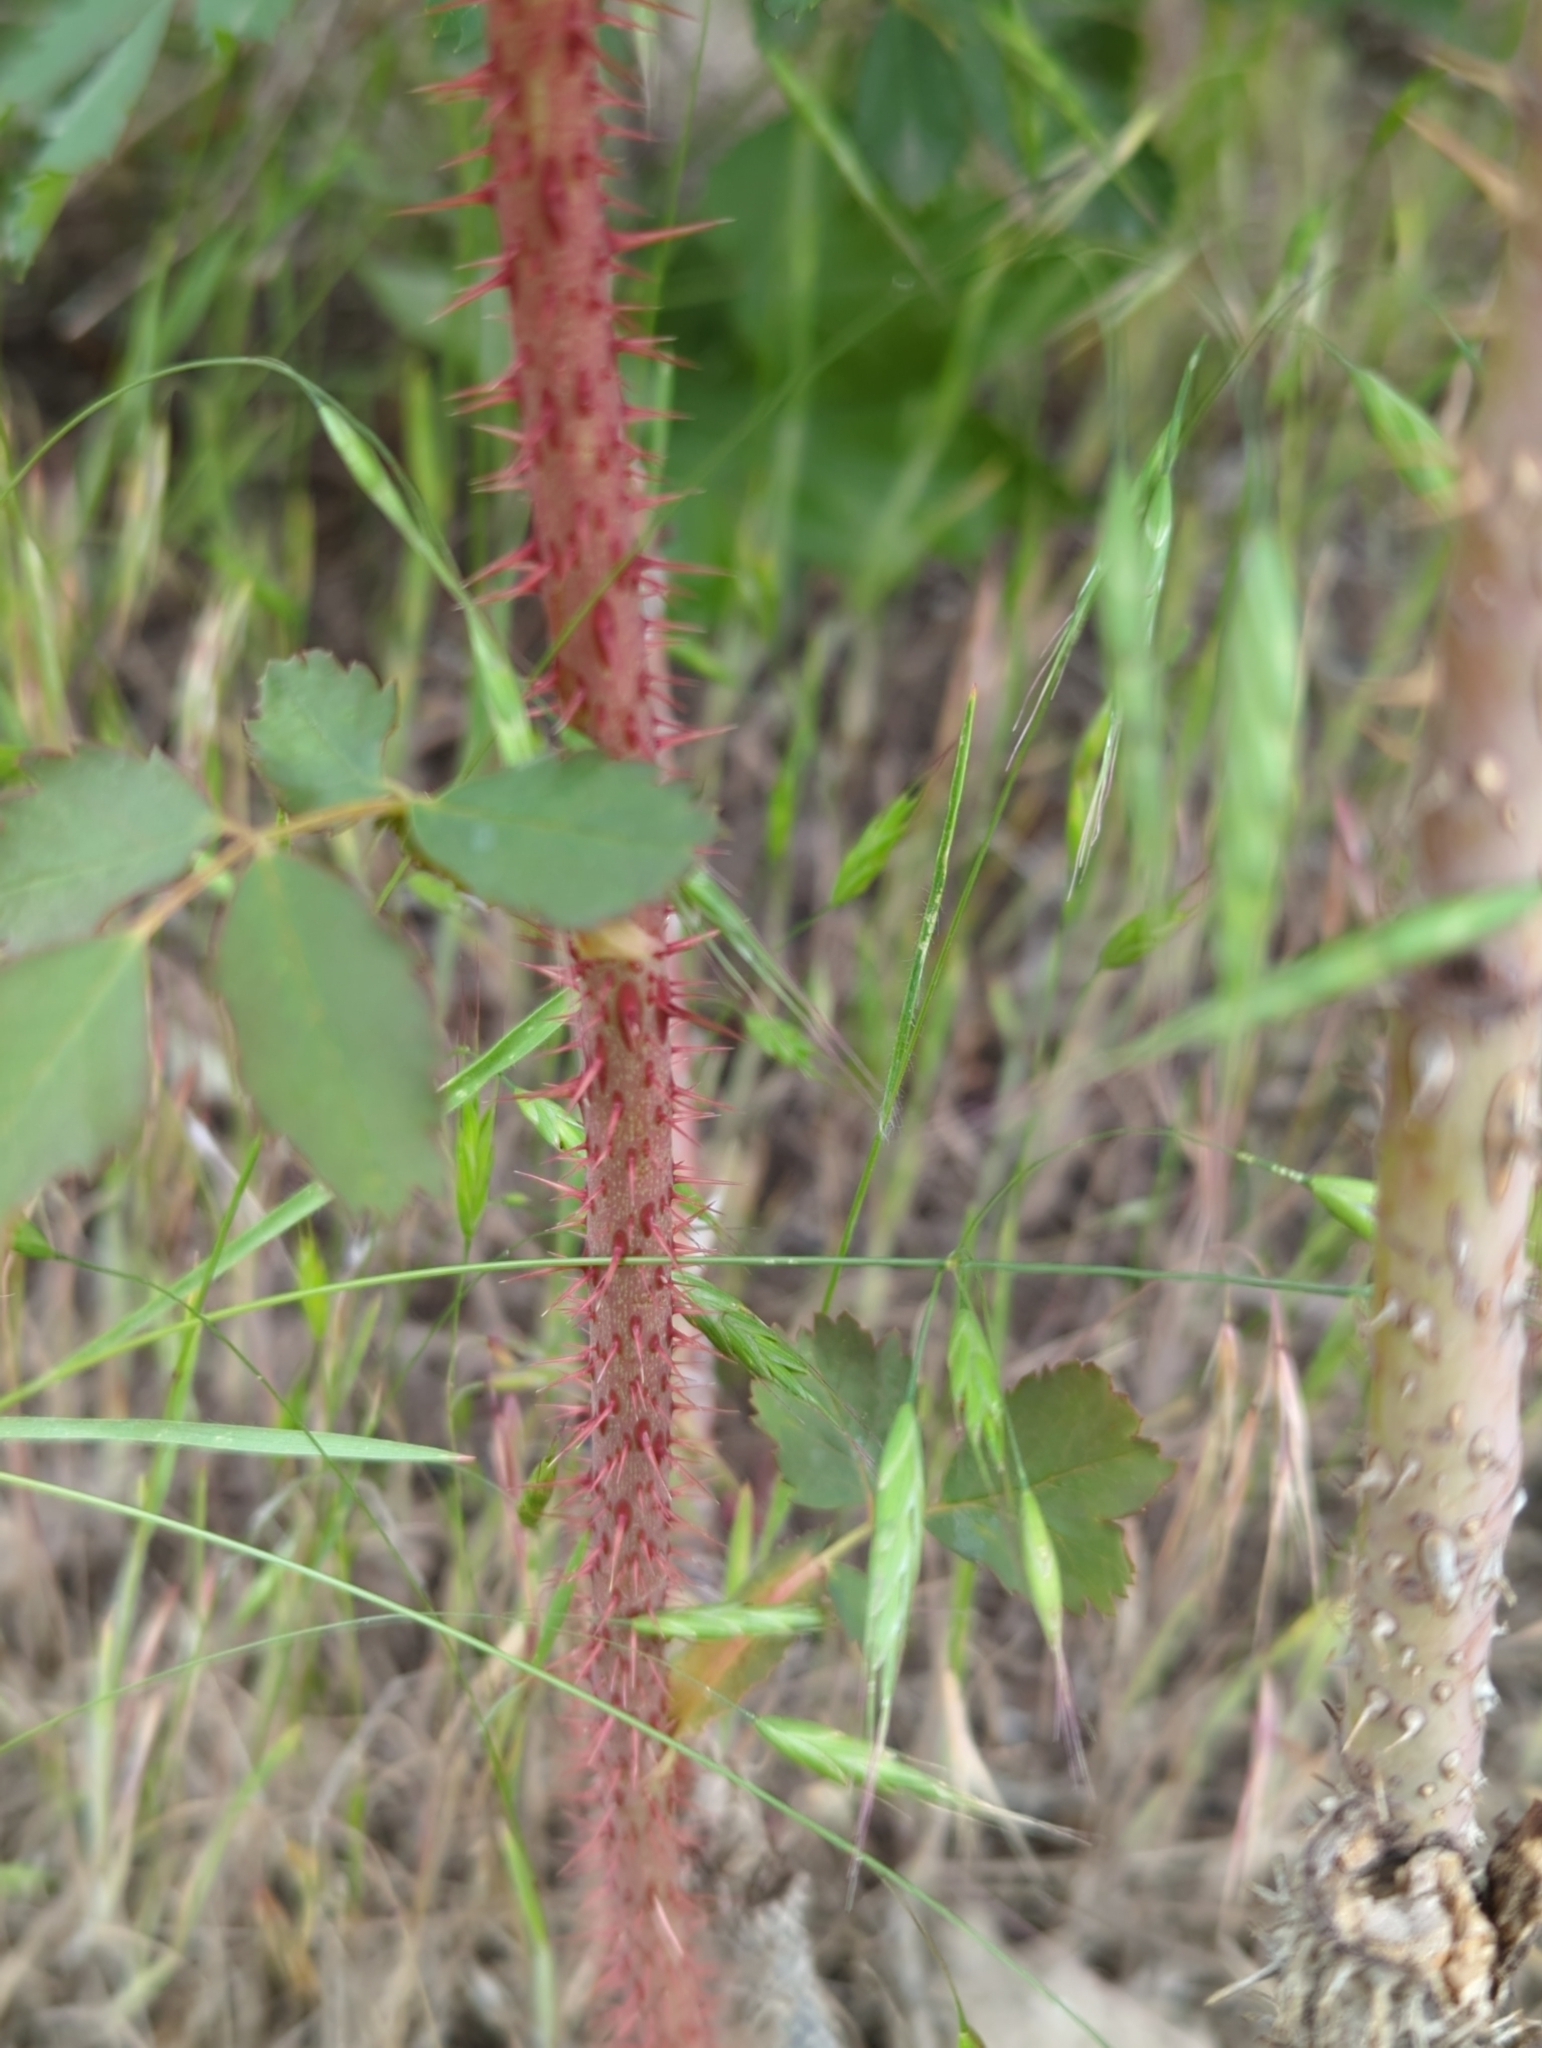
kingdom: Plantae
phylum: Tracheophyta
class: Magnoliopsida
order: Rosales
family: Rosaceae
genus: Rosa
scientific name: Rosa woodsii
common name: Woods's rose
